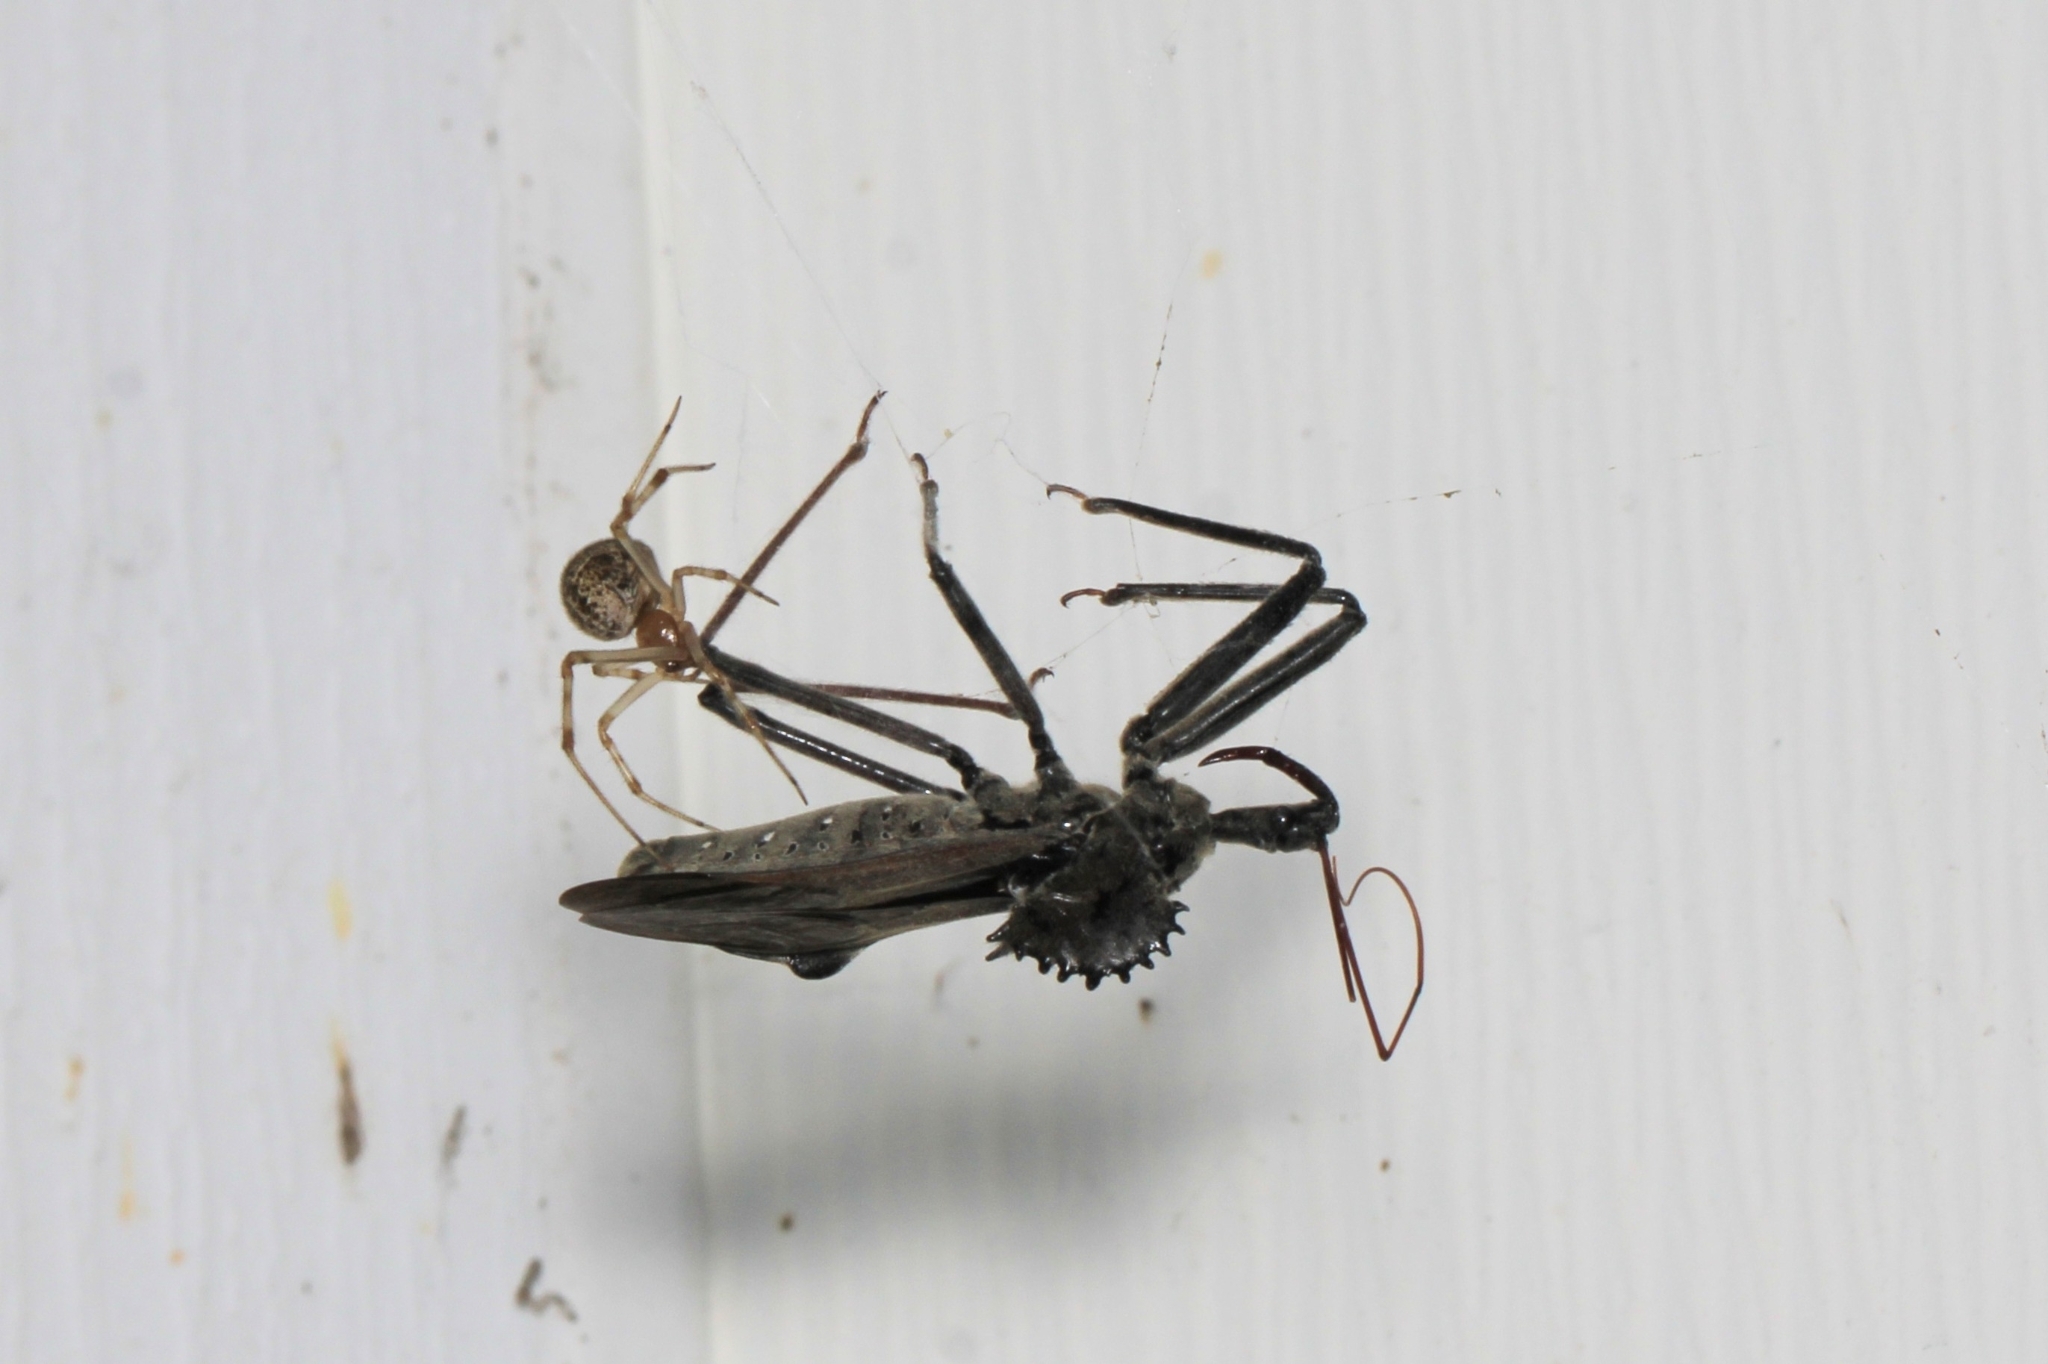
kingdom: Animalia
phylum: Arthropoda
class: Insecta
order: Hemiptera
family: Reduviidae
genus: Arilus
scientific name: Arilus cristatus
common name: North american wheel bug
